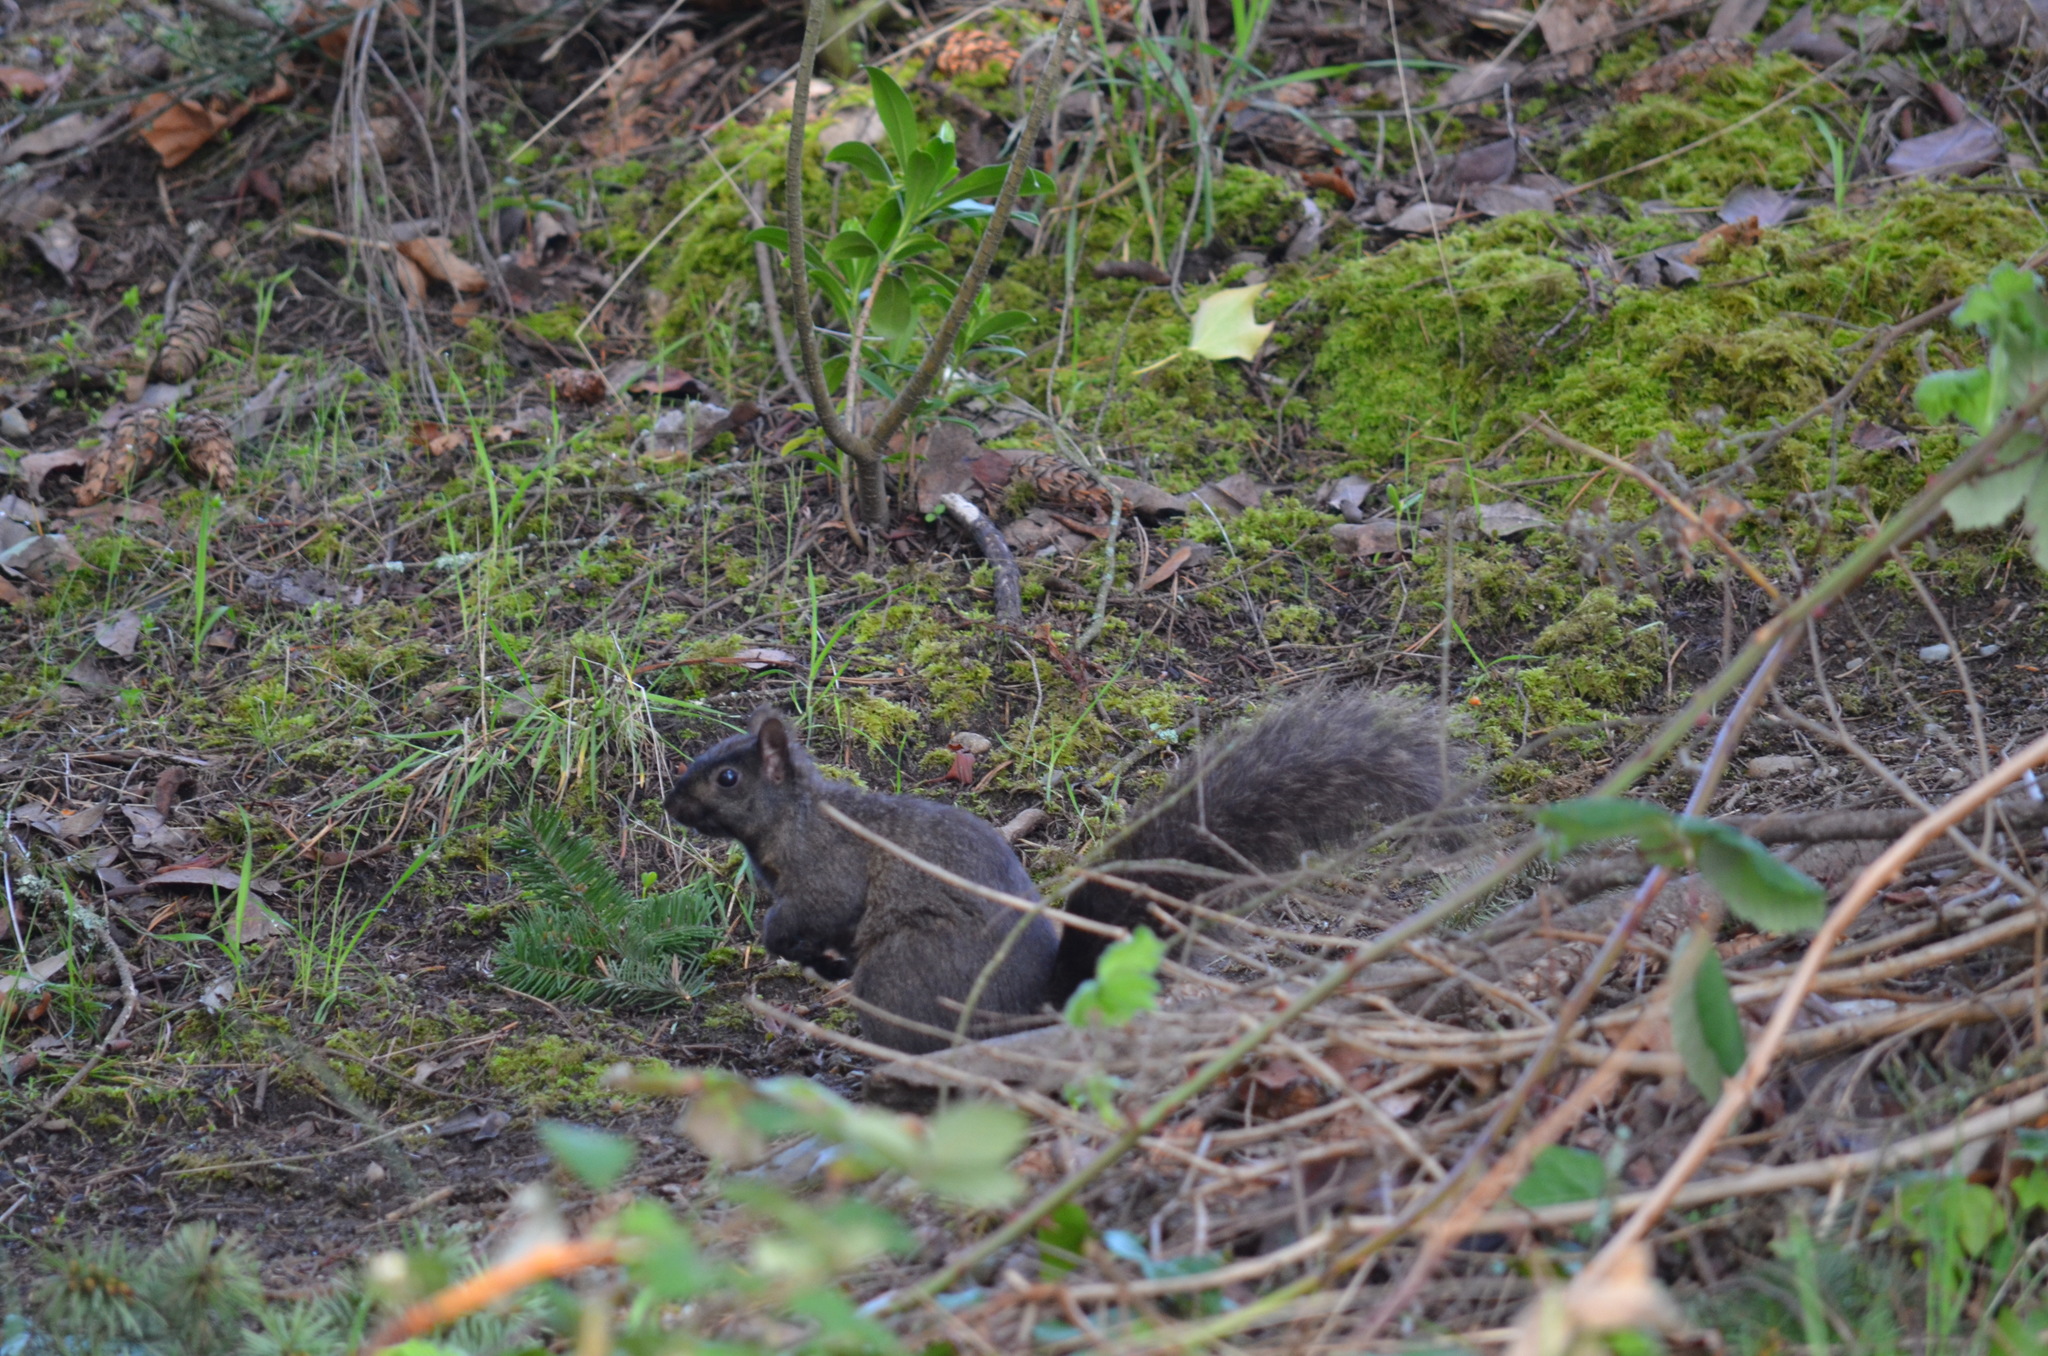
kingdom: Animalia
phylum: Chordata
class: Mammalia
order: Rodentia
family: Sciuridae
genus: Sciurus
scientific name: Sciurus carolinensis
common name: Eastern gray squirrel
